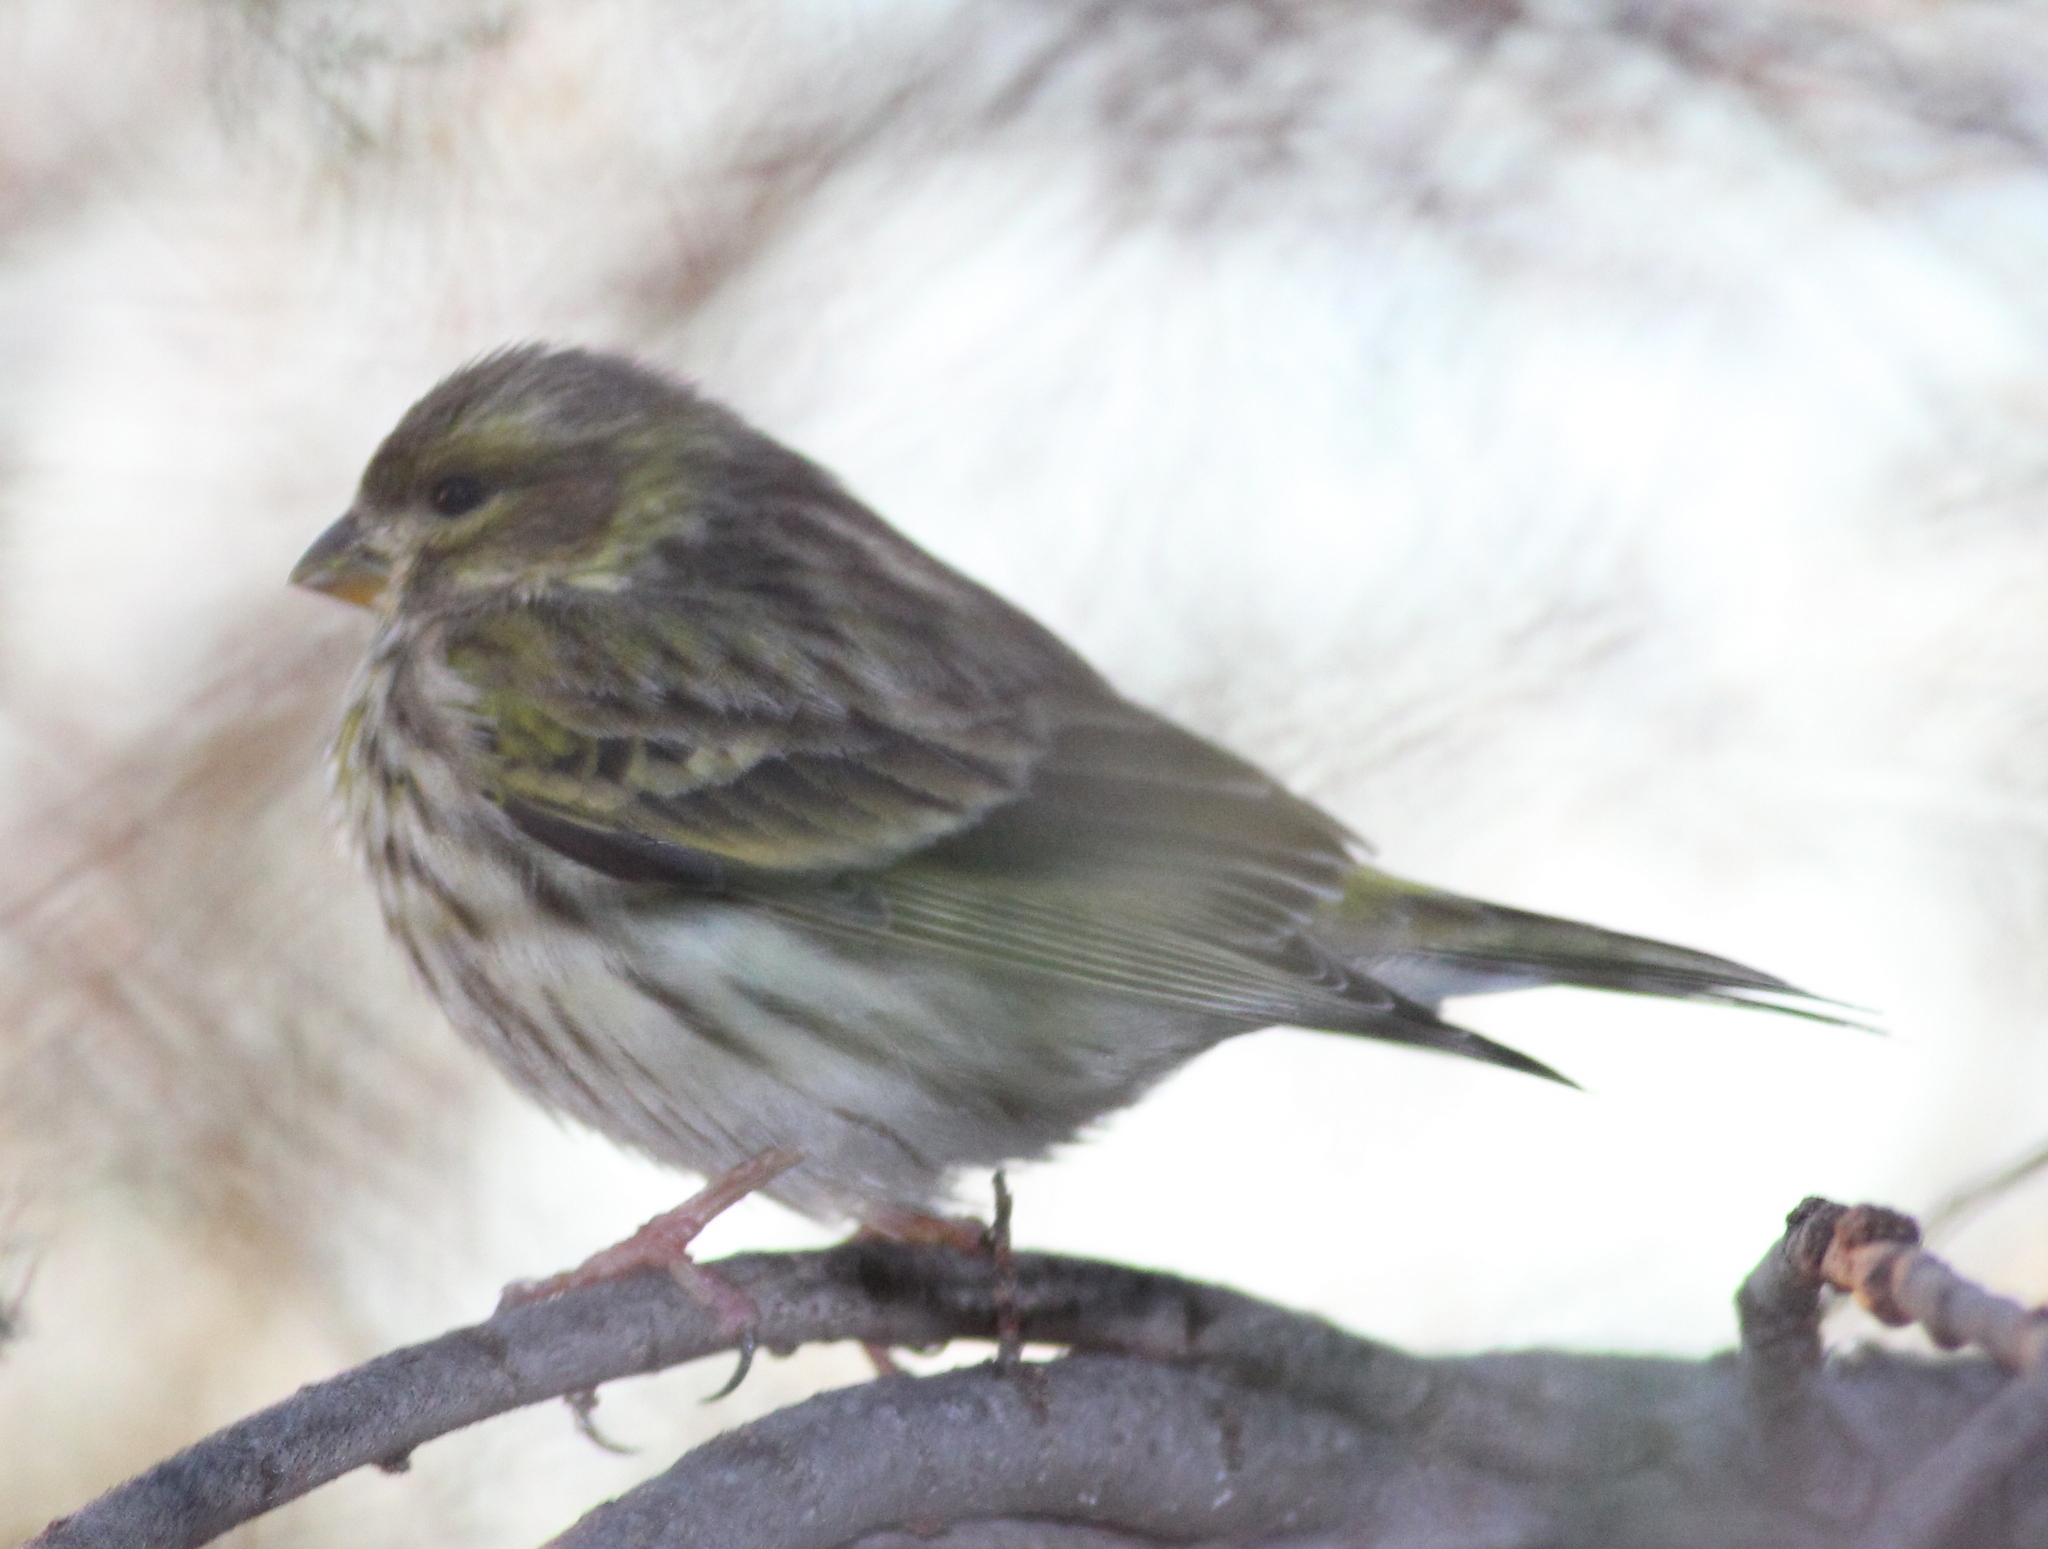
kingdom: Animalia
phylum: Chordata
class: Aves
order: Passeriformes
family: Fringillidae
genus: Serinus
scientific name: Serinus serinus
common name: European serin
